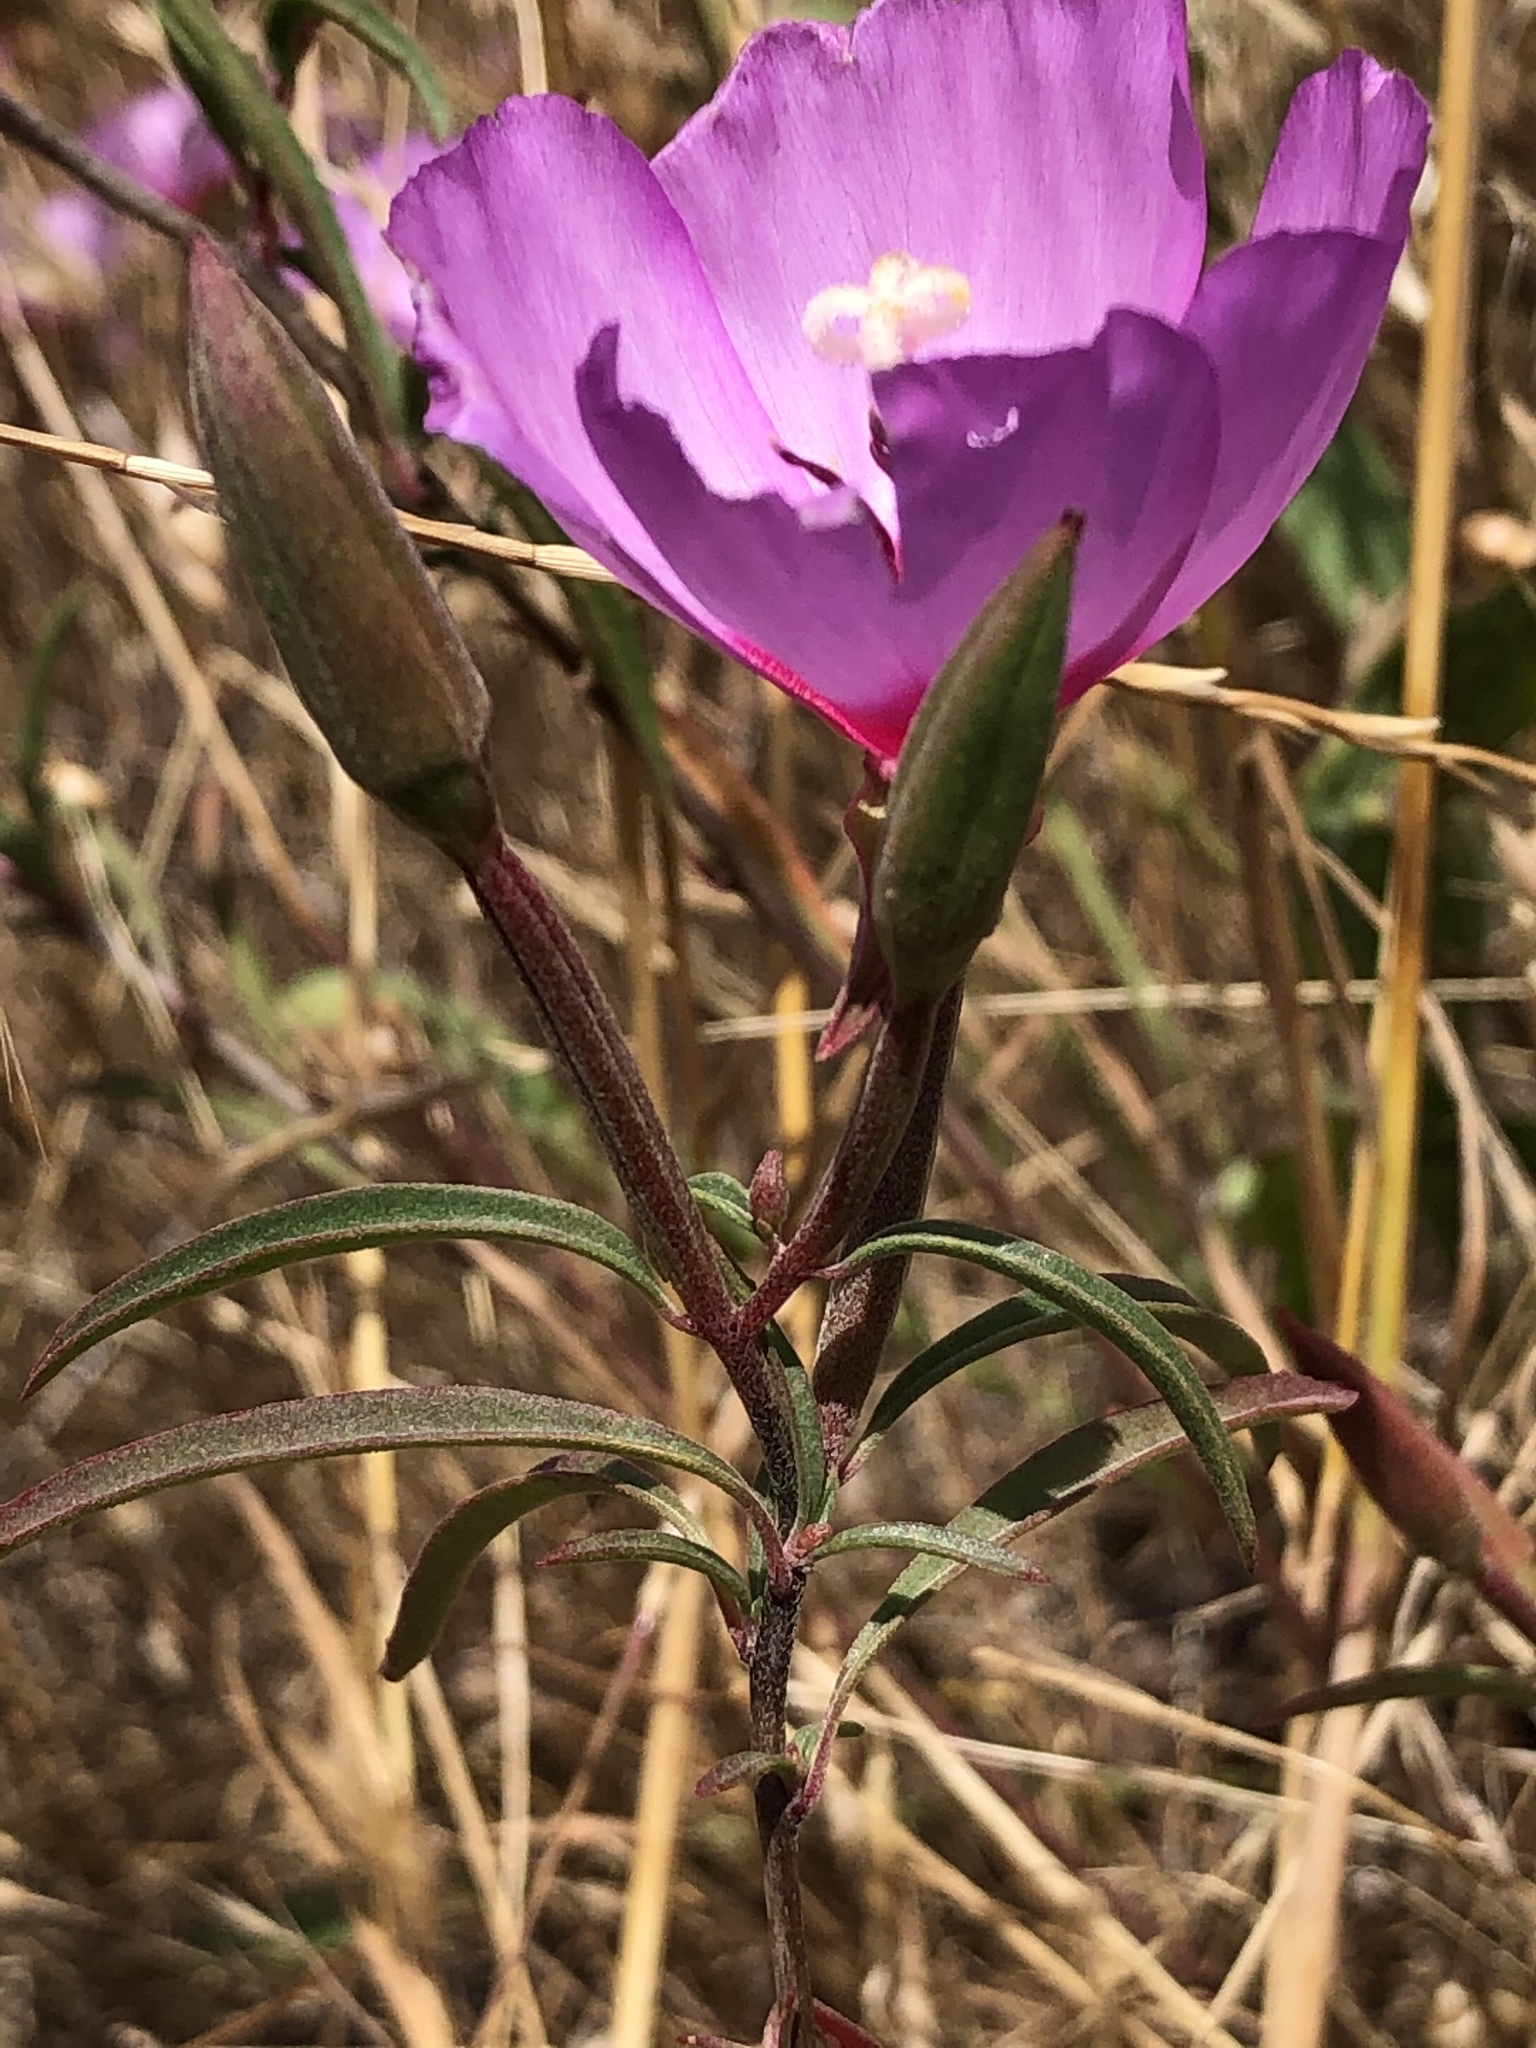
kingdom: Plantae
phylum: Tracheophyta
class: Magnoliopsida
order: Myrtales
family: Onagraceae
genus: Clarkia
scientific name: Clarkia rubicunda
